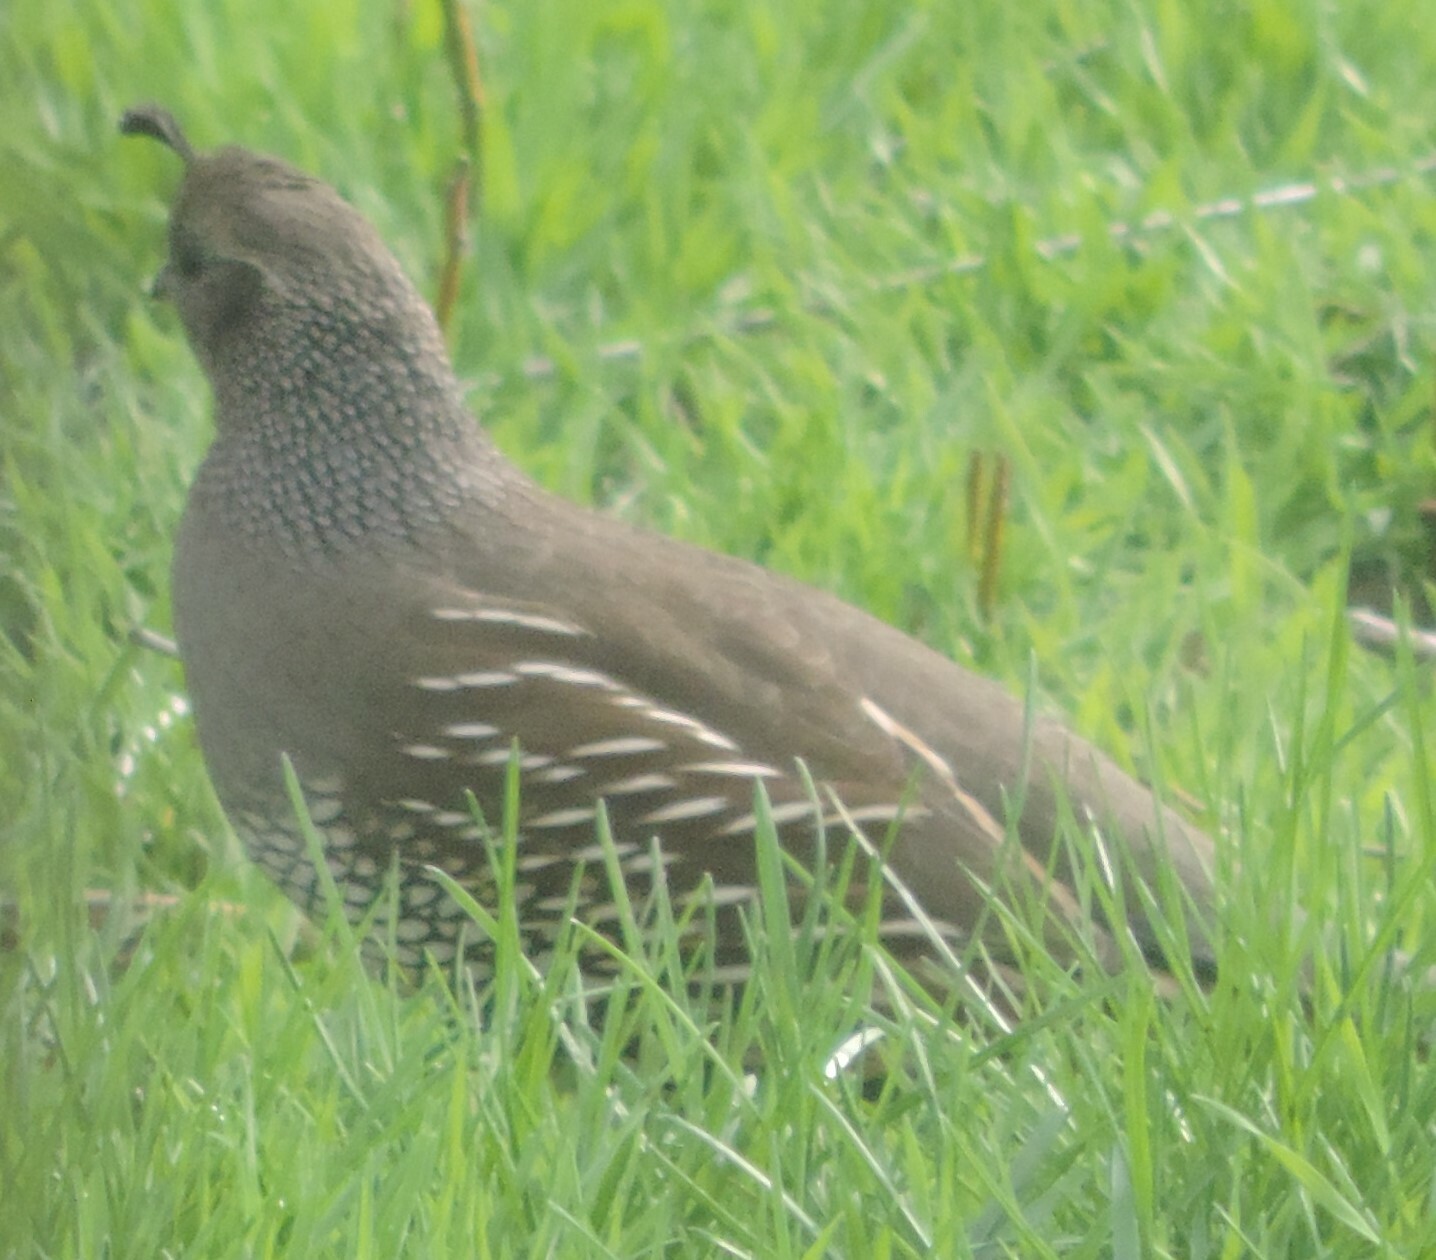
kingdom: Animalia
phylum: Chordata
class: Aves
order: Galliformes
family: Odontophoridae
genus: Callipepla
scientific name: Callipepla californica
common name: California quail
